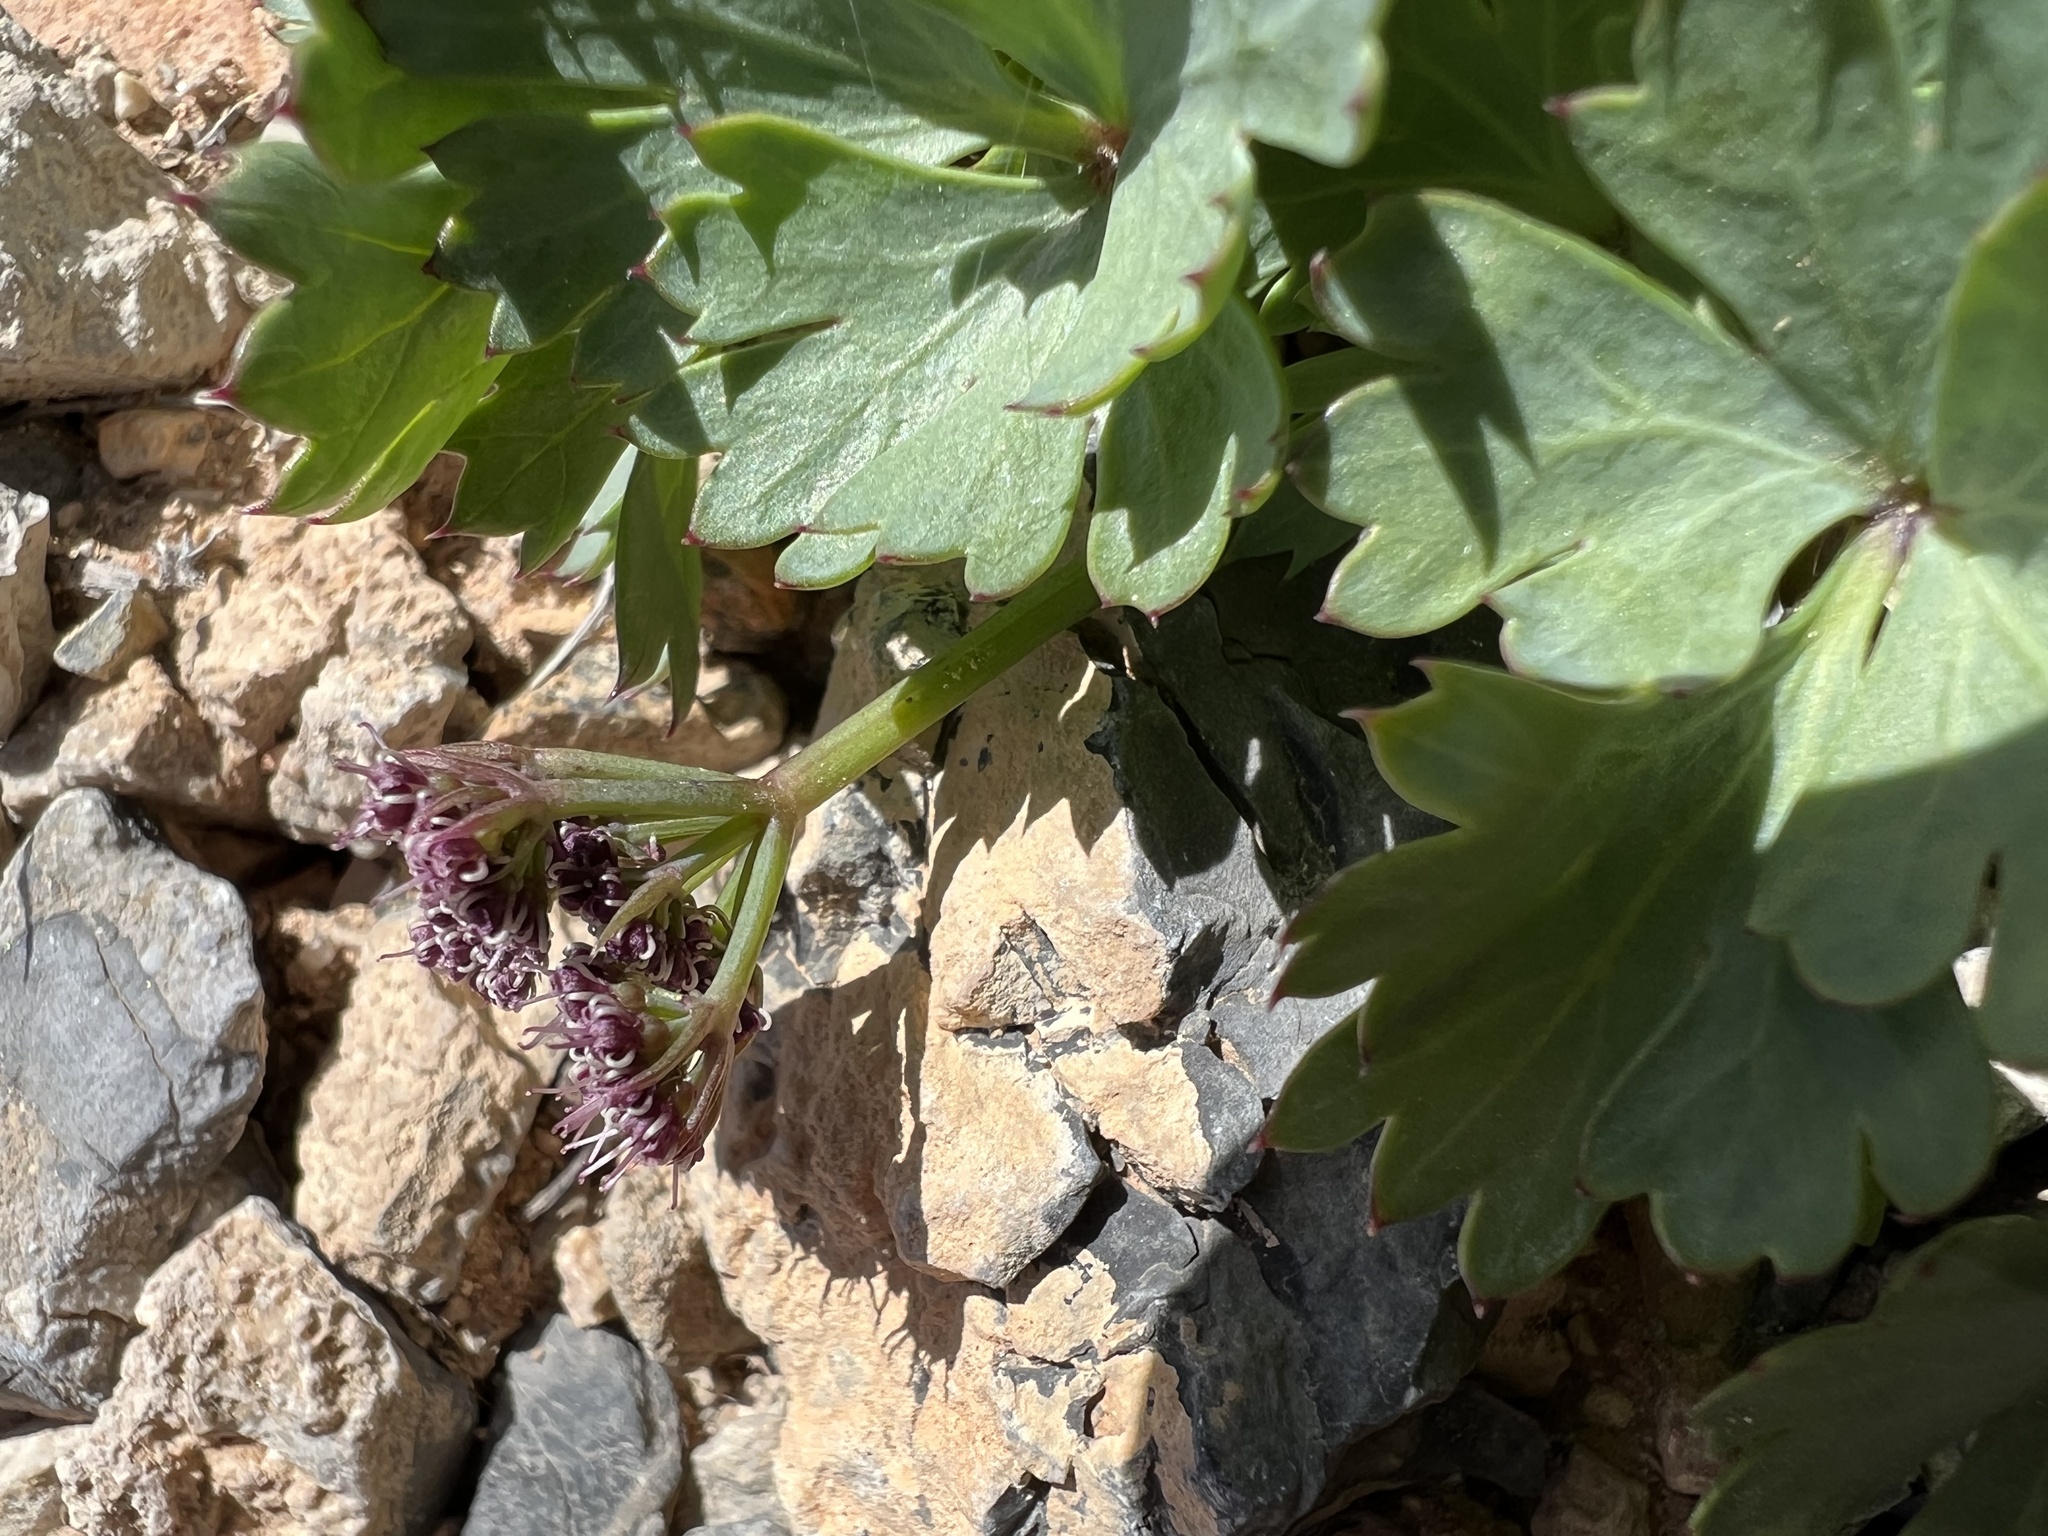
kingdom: Plantae
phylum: Tracheophyta
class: Magnoliopsida
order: Apiales
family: Apiaceae
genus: Cymopterus
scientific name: Cymopterus gilmanii
